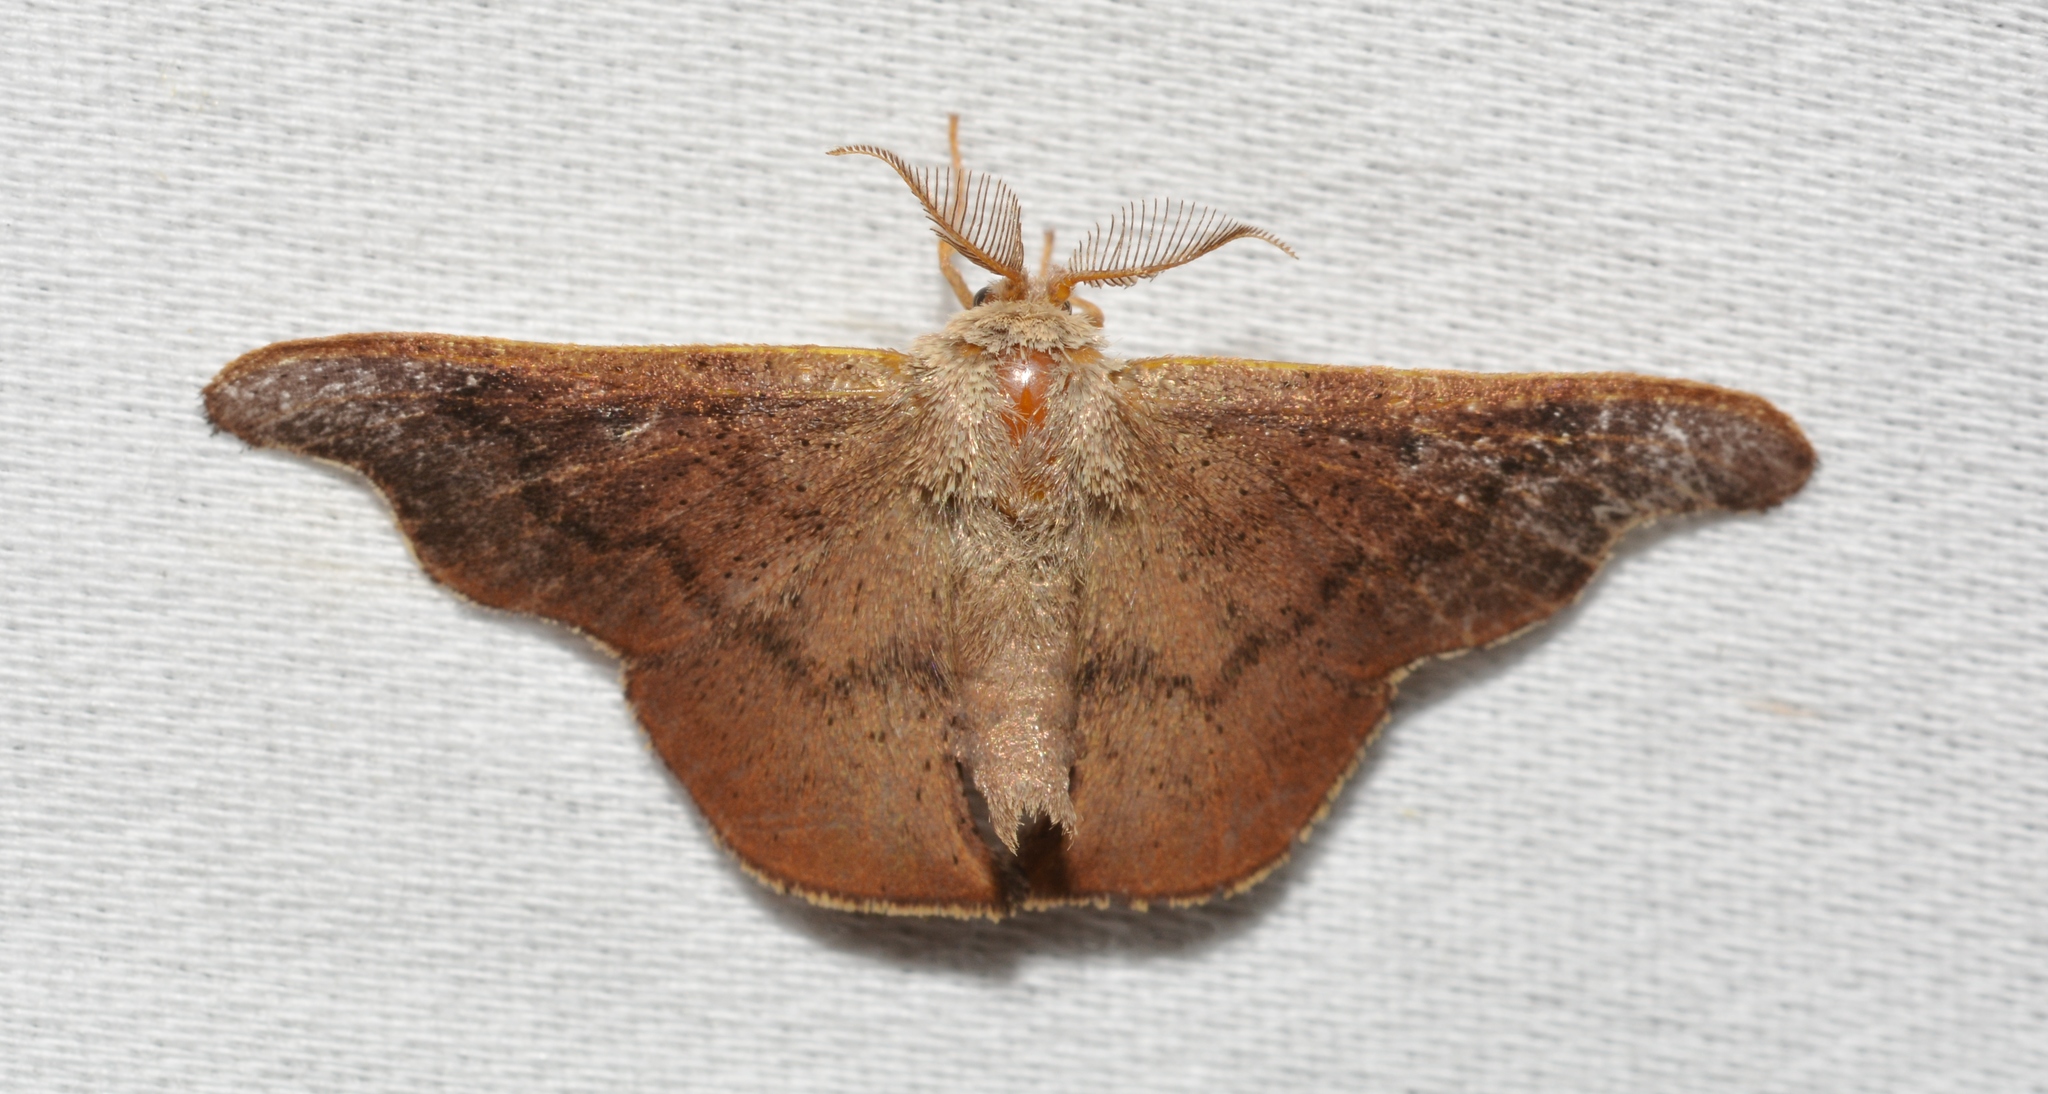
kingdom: Animalia
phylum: Arthropoda
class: Insecta
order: Lepidoptera
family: Mimallonidae
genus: Lacosoma
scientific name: Lacosoma chiridota
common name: Scalloped sack-bearer moth
